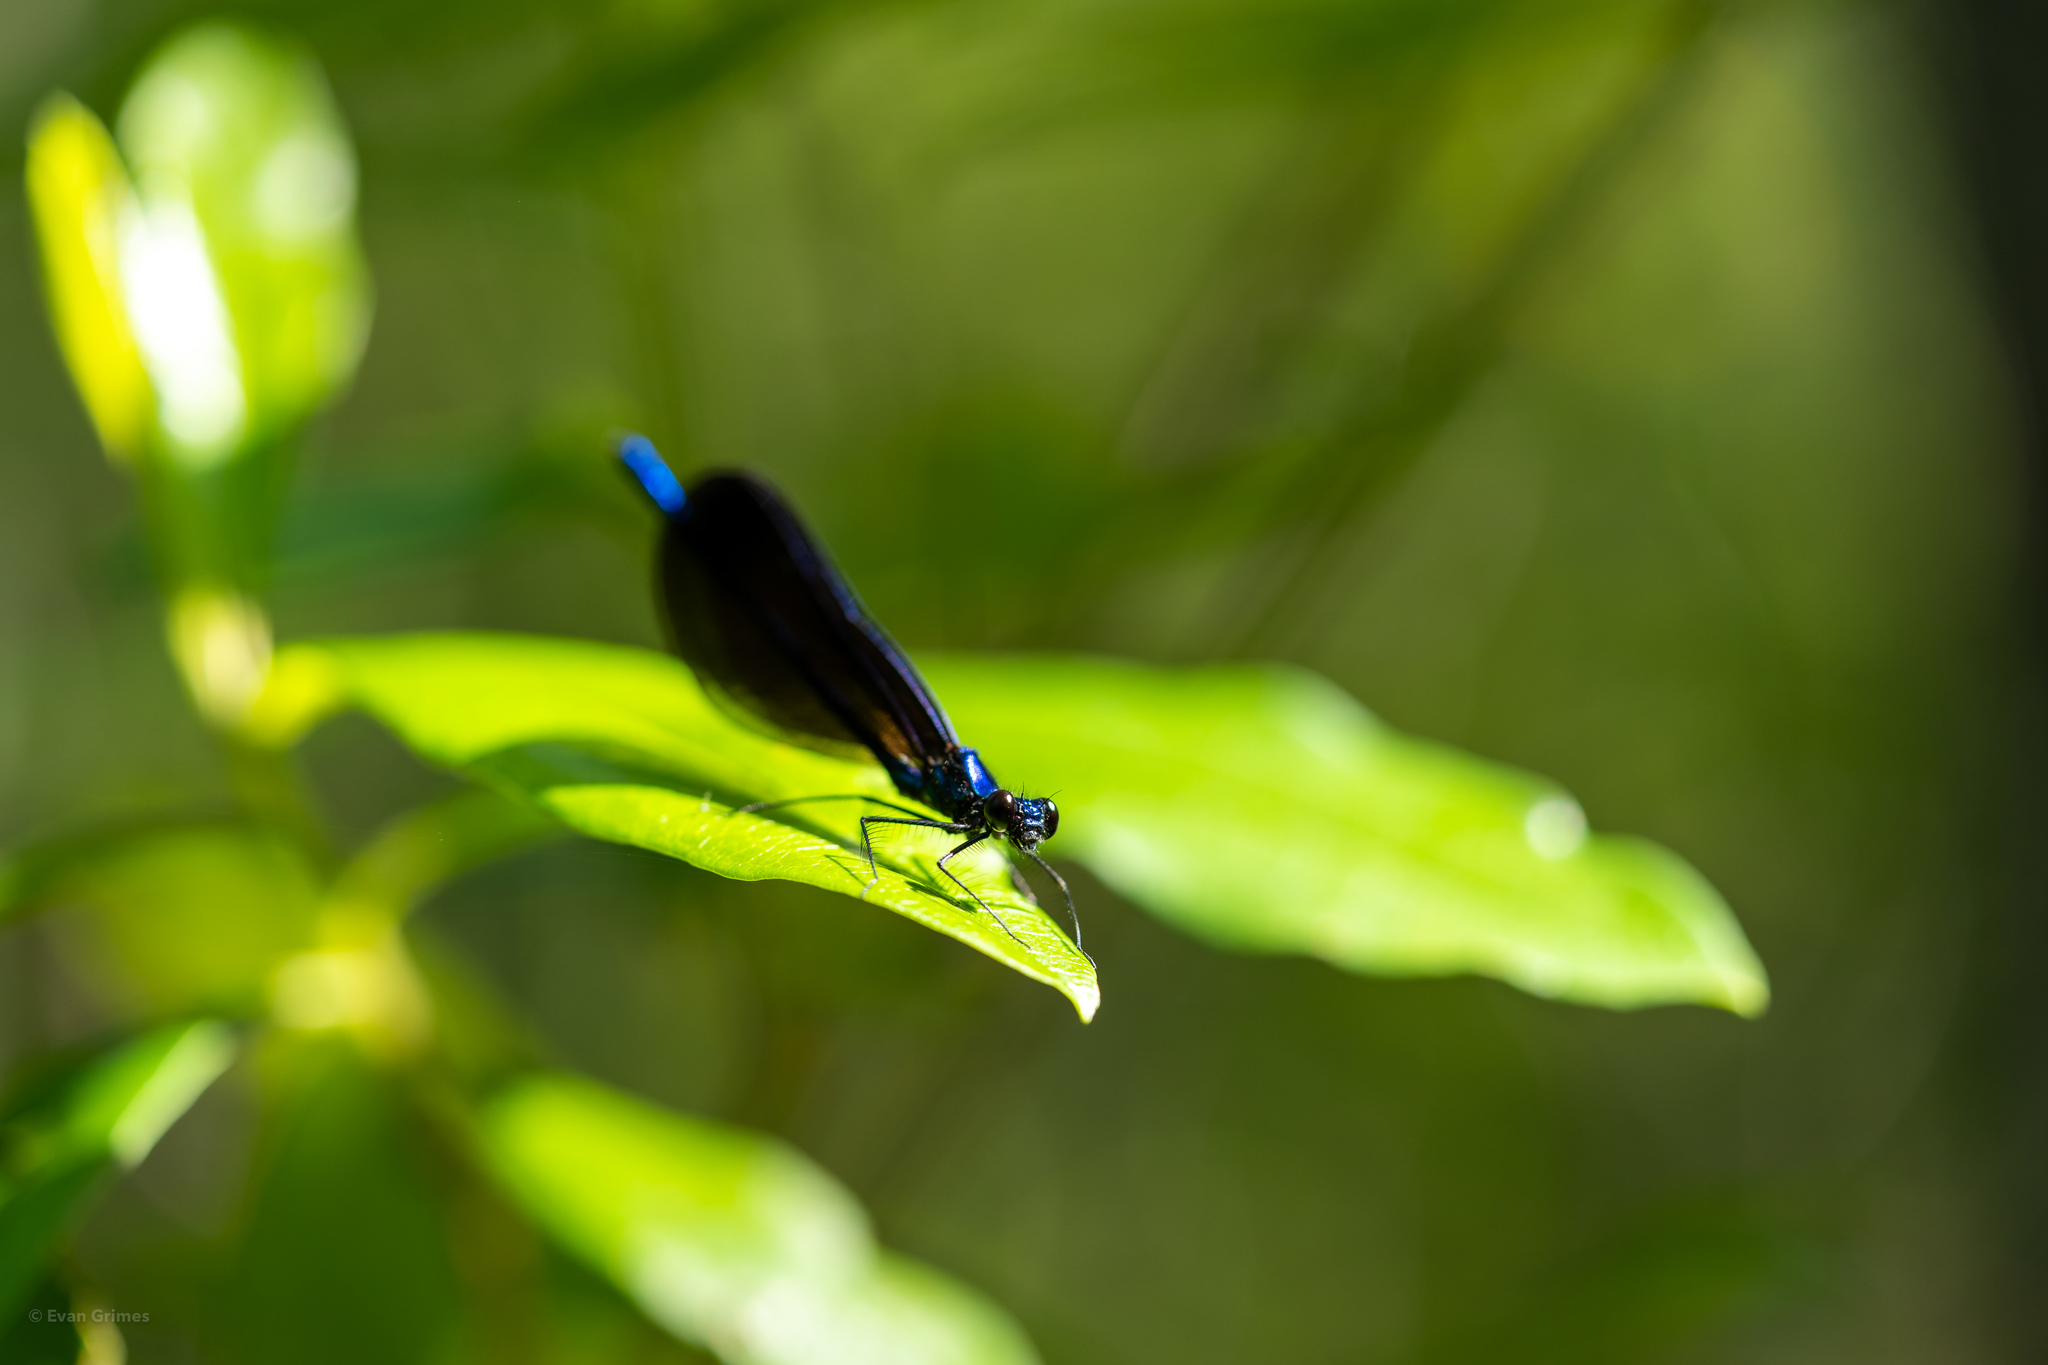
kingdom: Animalia
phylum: Arthropoda
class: Insecta
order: Odonata
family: Calopterygidae
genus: Calopteryx
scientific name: Calopteryx maculata
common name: Ebony jewelwing
